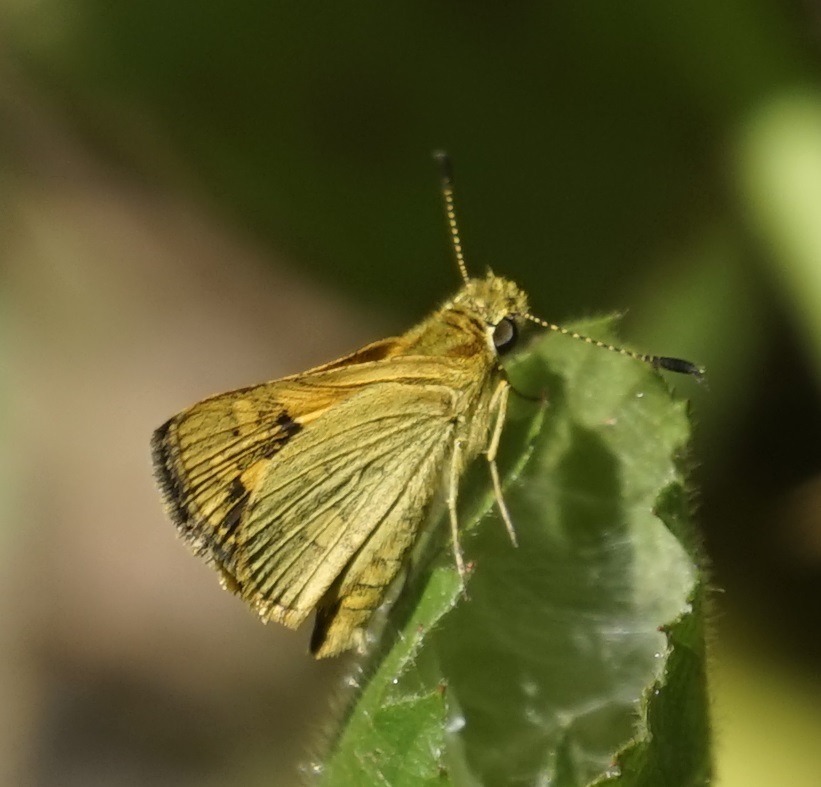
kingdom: Animalia
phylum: Arthropoda
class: Insecta
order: Lepidoptera
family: Hesperiidae
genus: Ocybadistes
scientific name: Ocybadistes walkeri
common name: Yellow-banded dart
